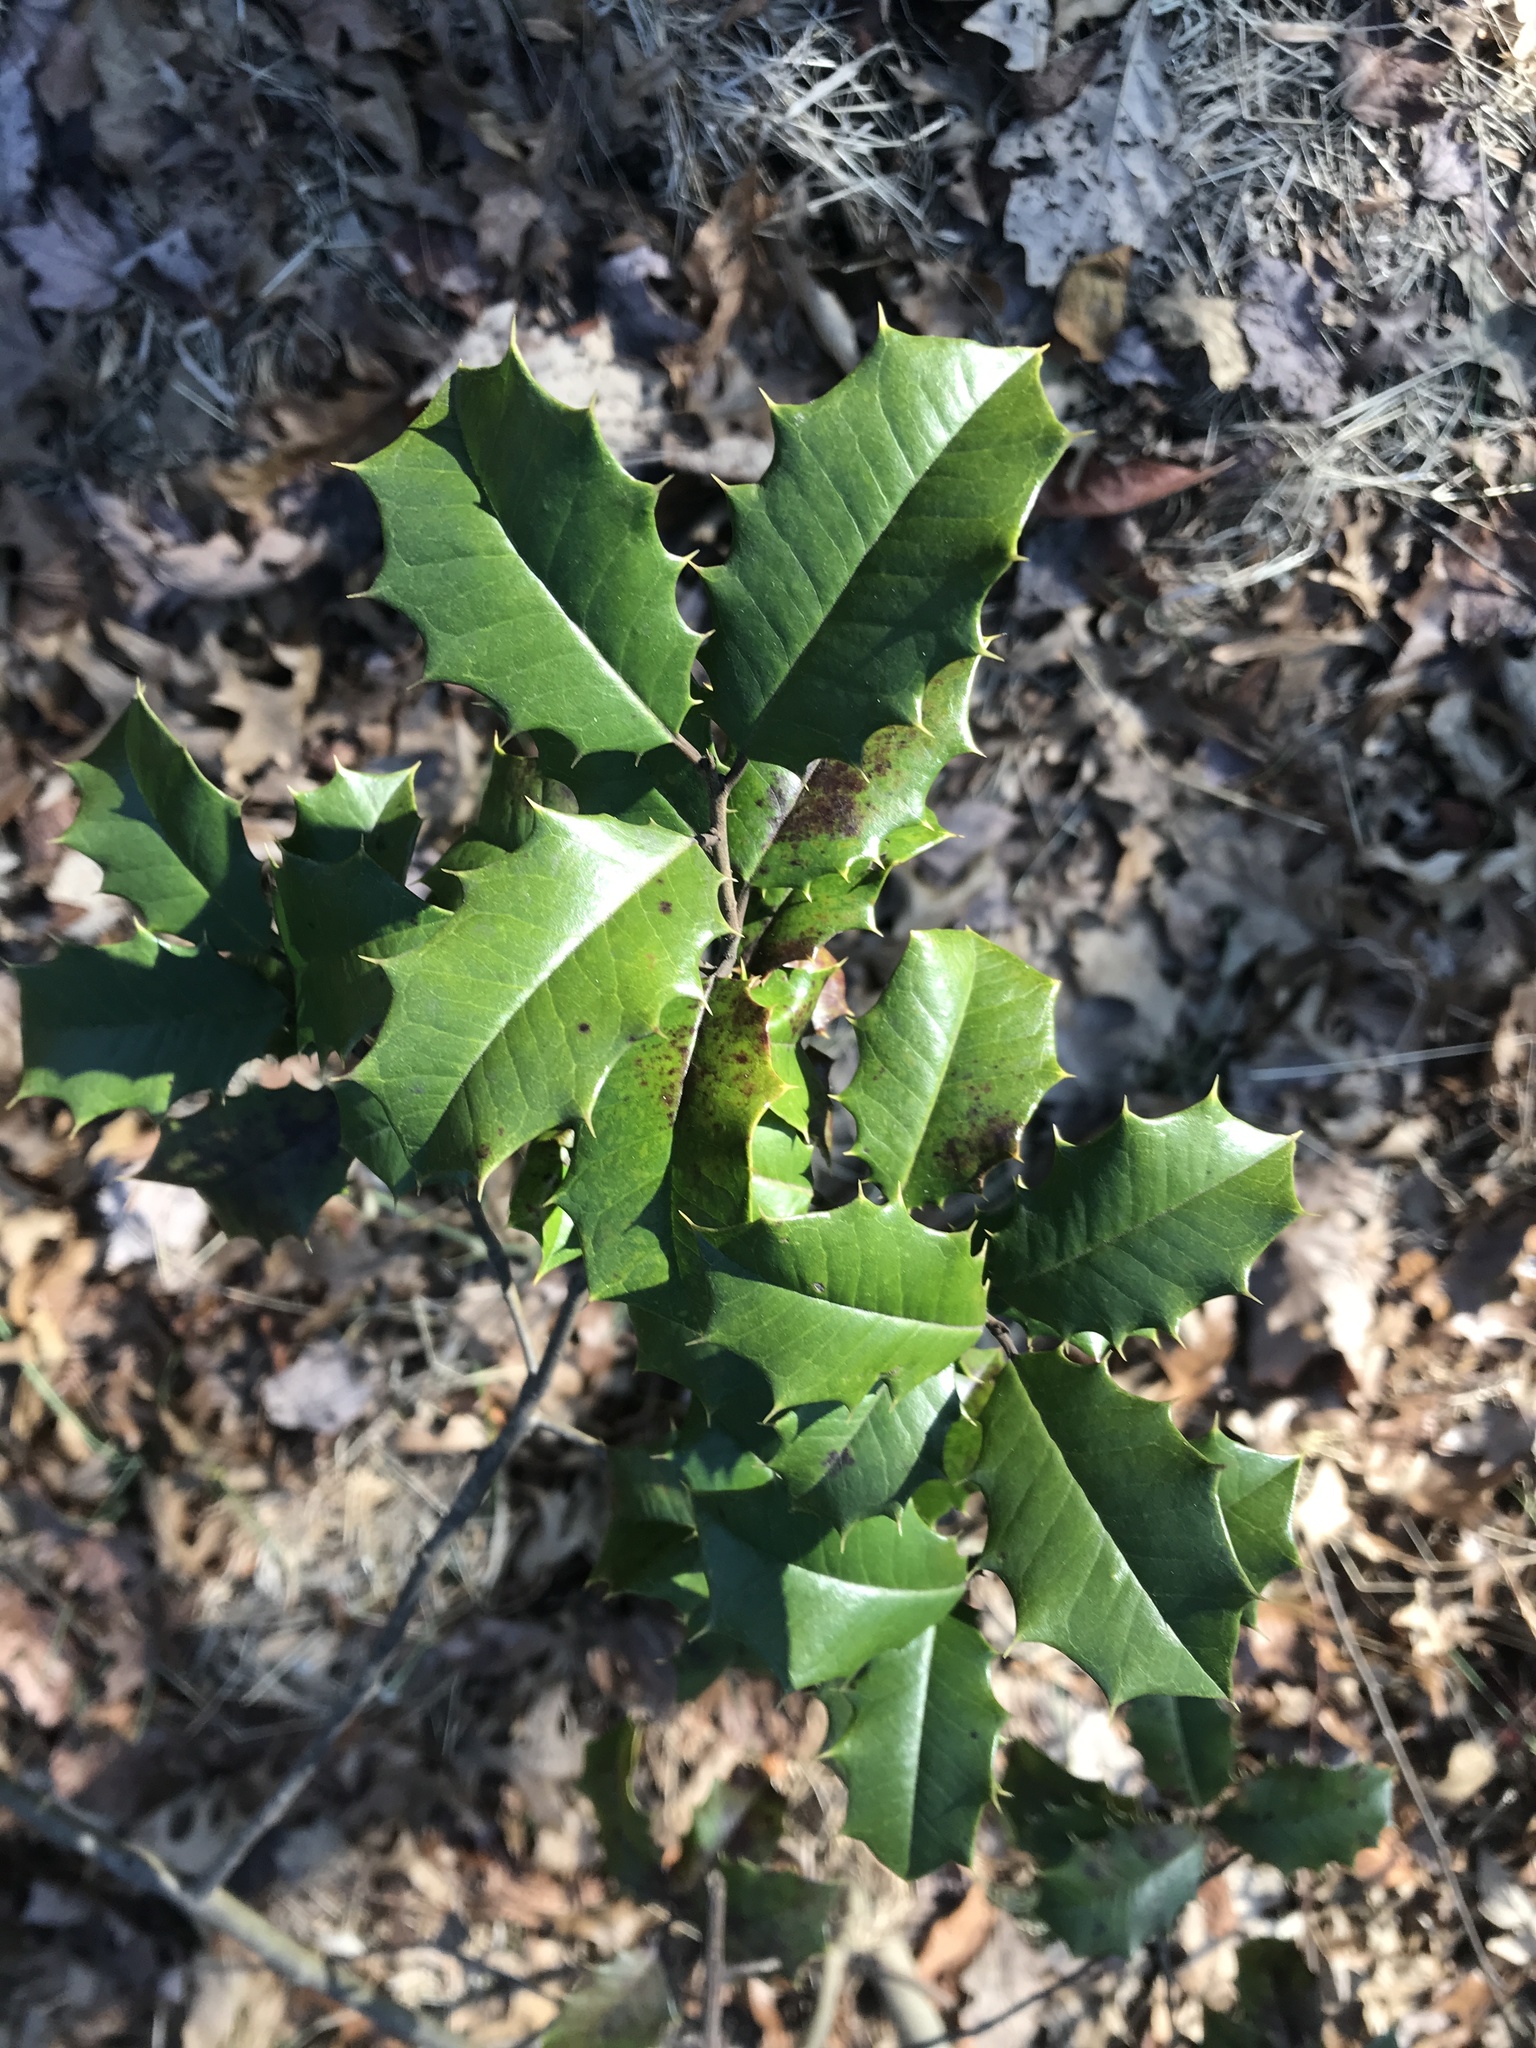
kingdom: Plantae
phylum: Tracheophyta
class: Magnoliopsida
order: Aquifoliales
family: Aquifoliaceae
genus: Ilex
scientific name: Ilex opaca
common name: American holly
